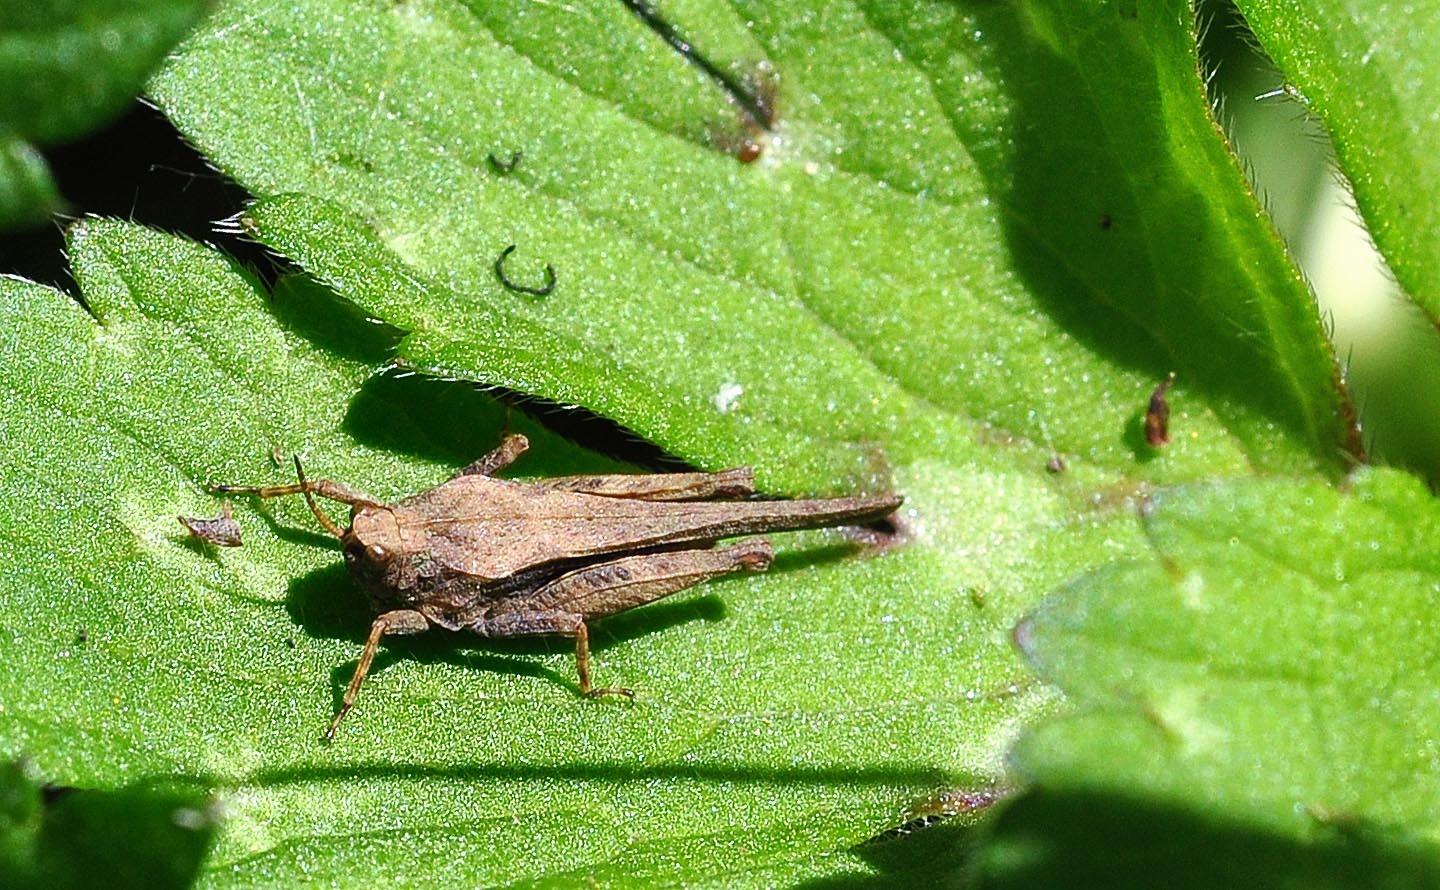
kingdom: Animalia
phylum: Arthropoda
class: Insecta
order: Orthoptera
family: Tetrigidae
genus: Tetrix
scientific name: Tetrix subulata
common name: Slender ground-hopper
